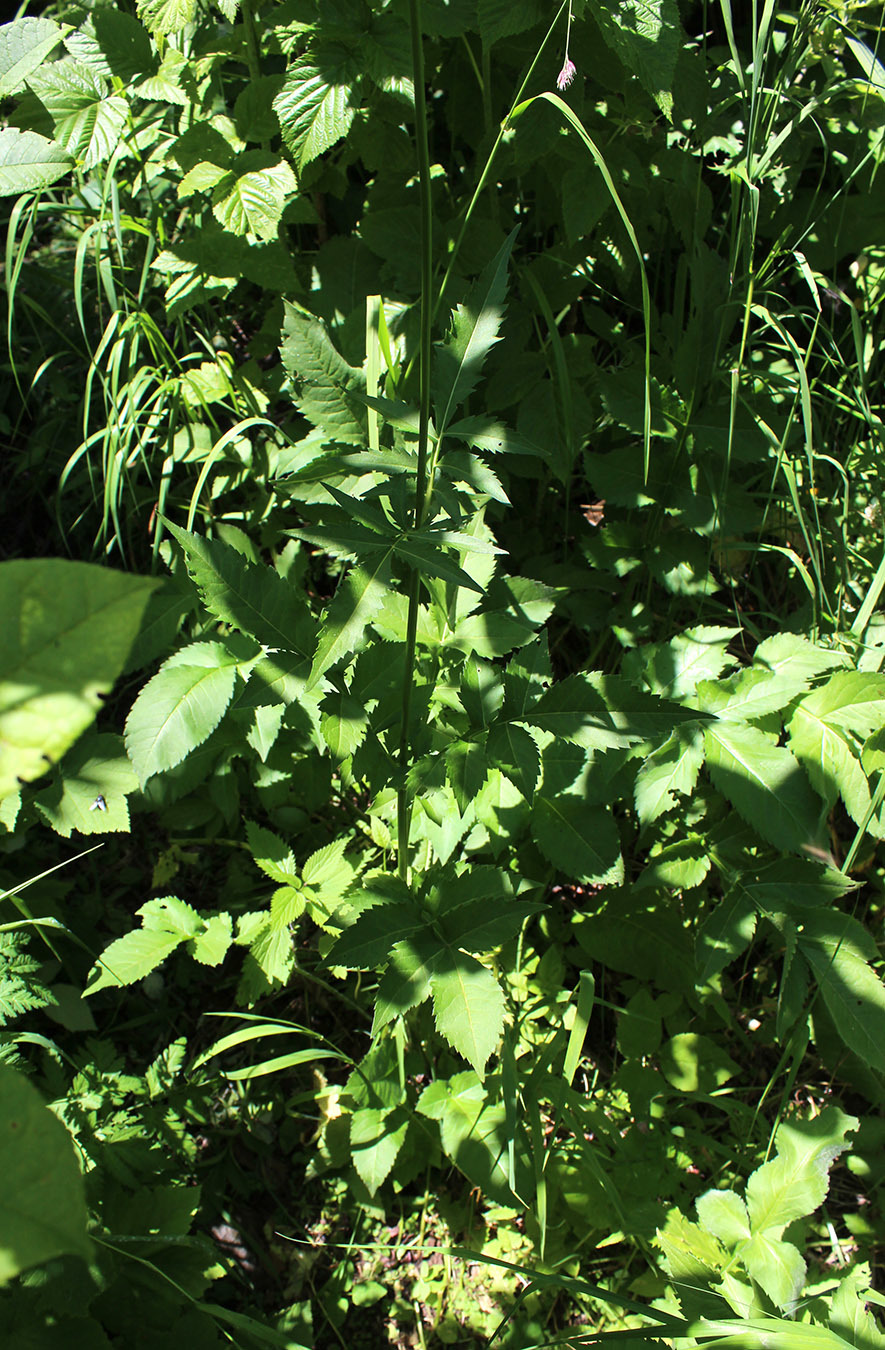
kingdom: Plantae
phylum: Tracheophyta
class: Magnoliopsida
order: Dipsacales
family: Caprifoliaceae
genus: Cephalaria
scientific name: Cephalaria gigantea
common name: Tatarian cephalaria
